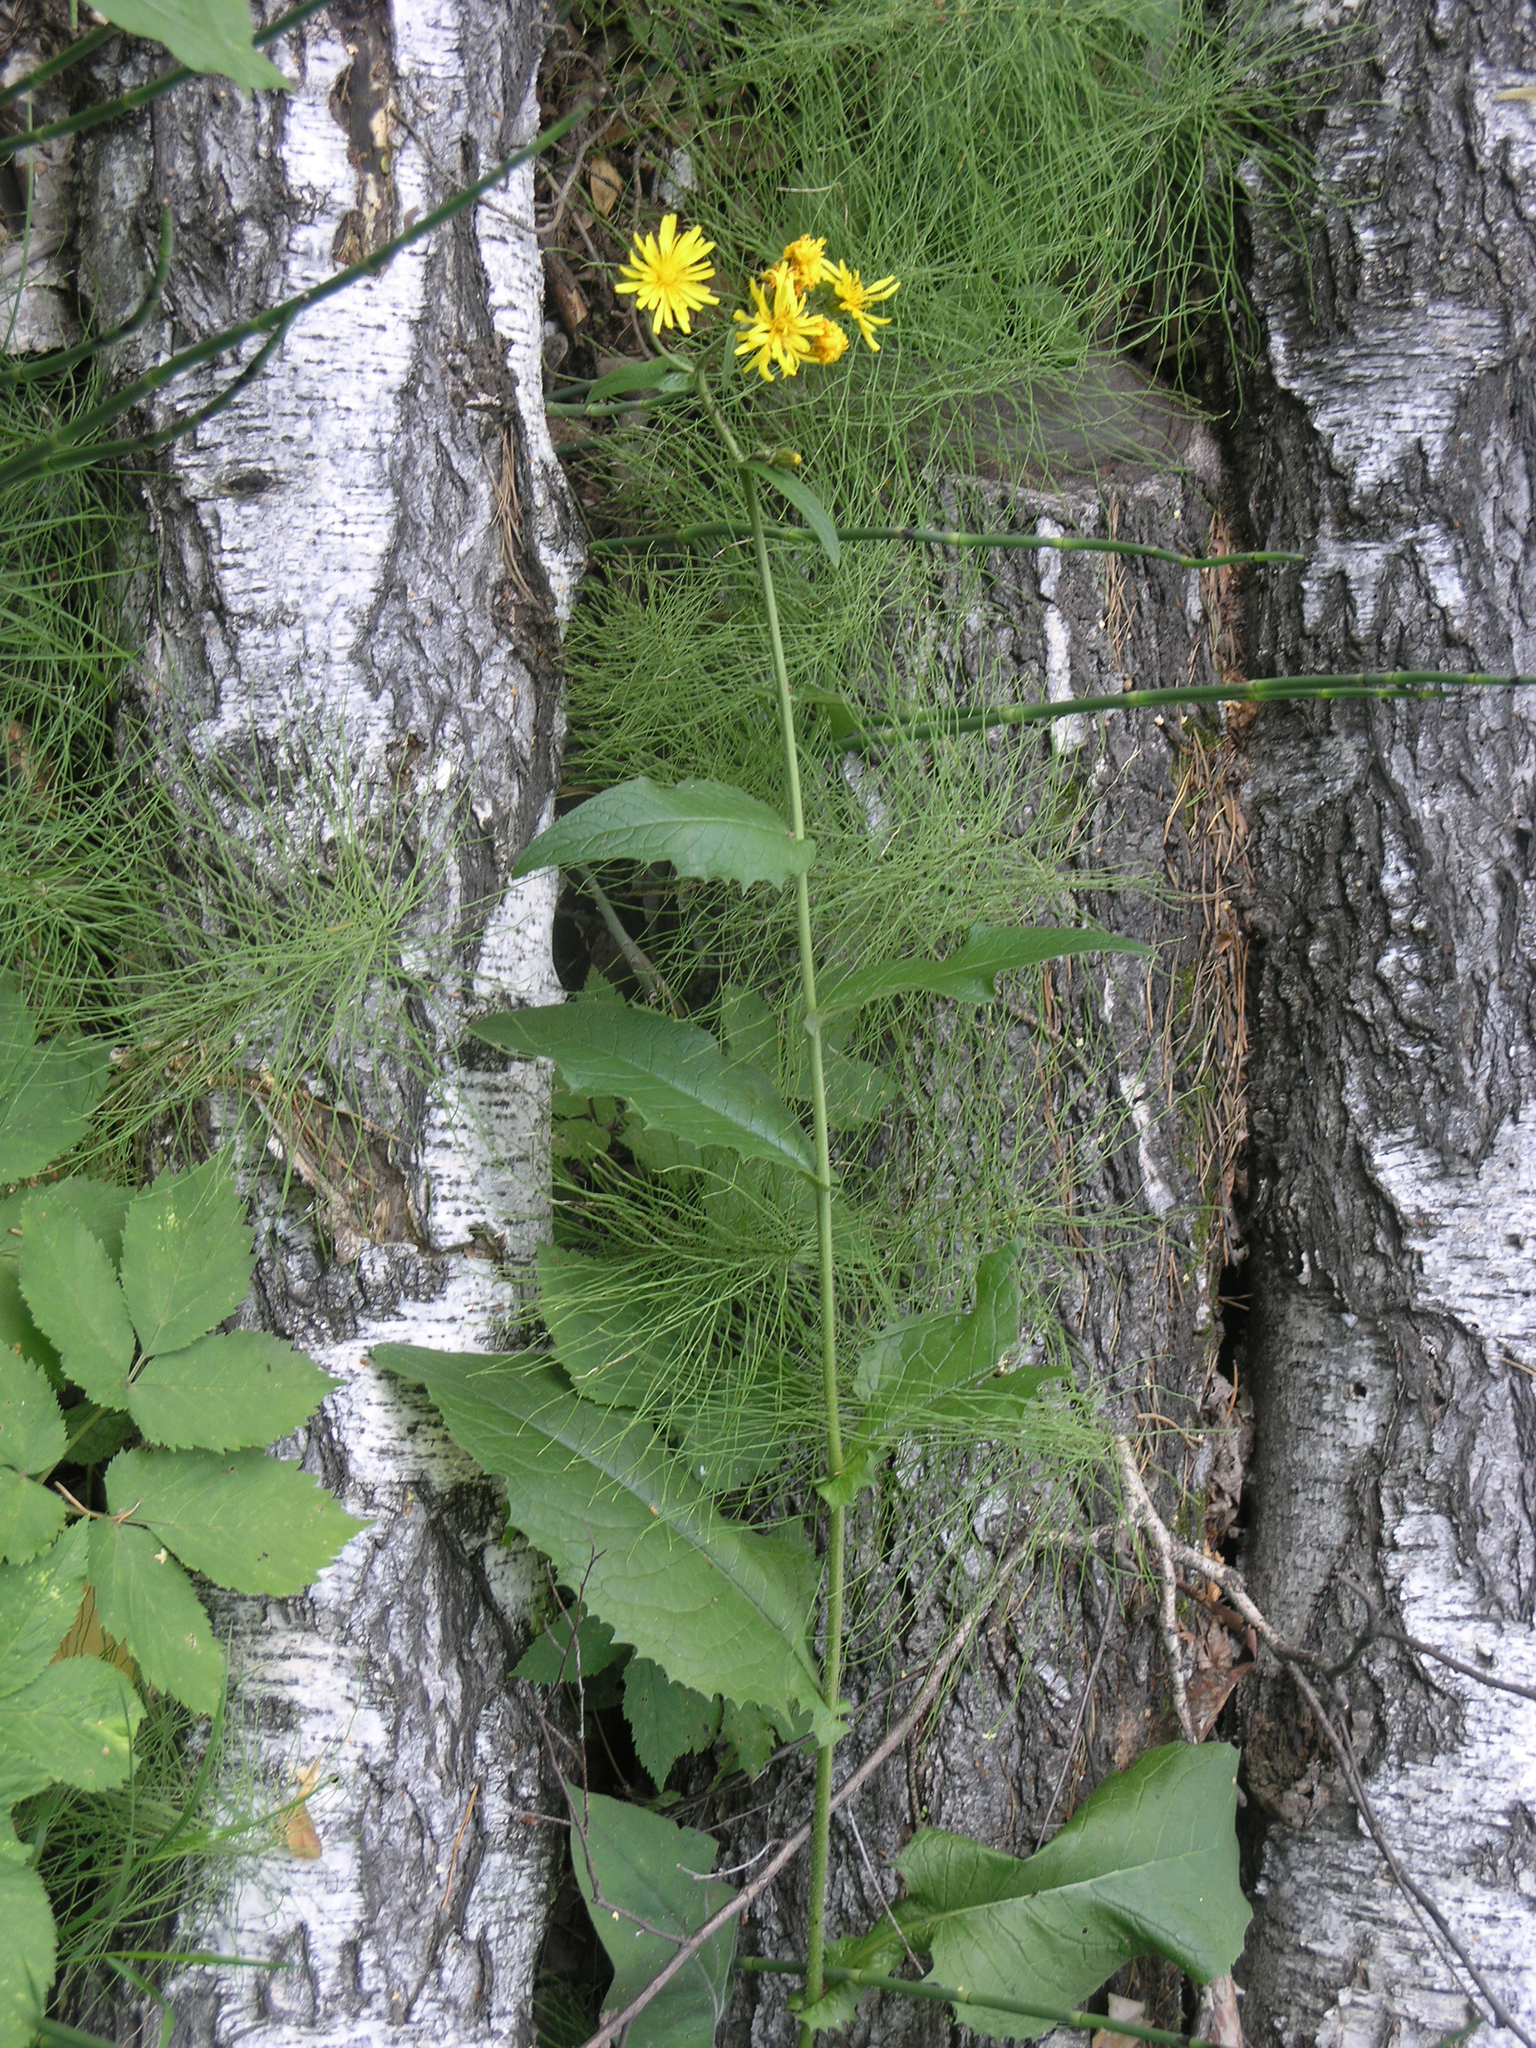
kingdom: Plantae
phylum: Tracheophyta
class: Magnoliopsida
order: Asterales
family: Asteraceae
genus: Crepis
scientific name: Crepis sibirica
